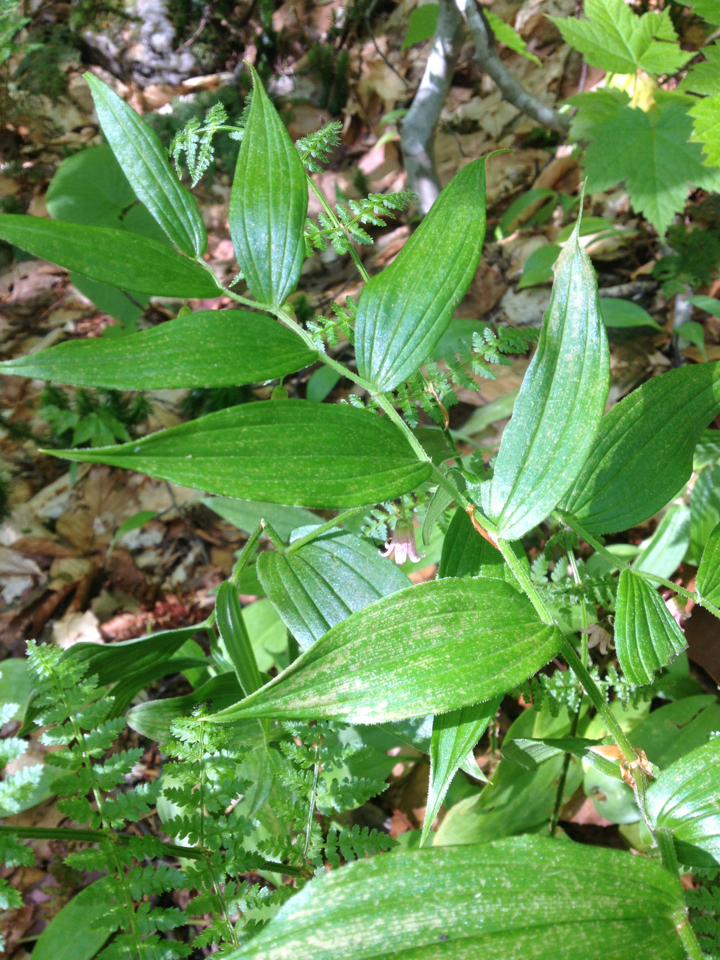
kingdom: Plantae
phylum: Tracheophyta
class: Liliopsida
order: Liliales
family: Liliaceae
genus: Streptopus
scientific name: Streptopus lanceolatus
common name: Rose mandarin
